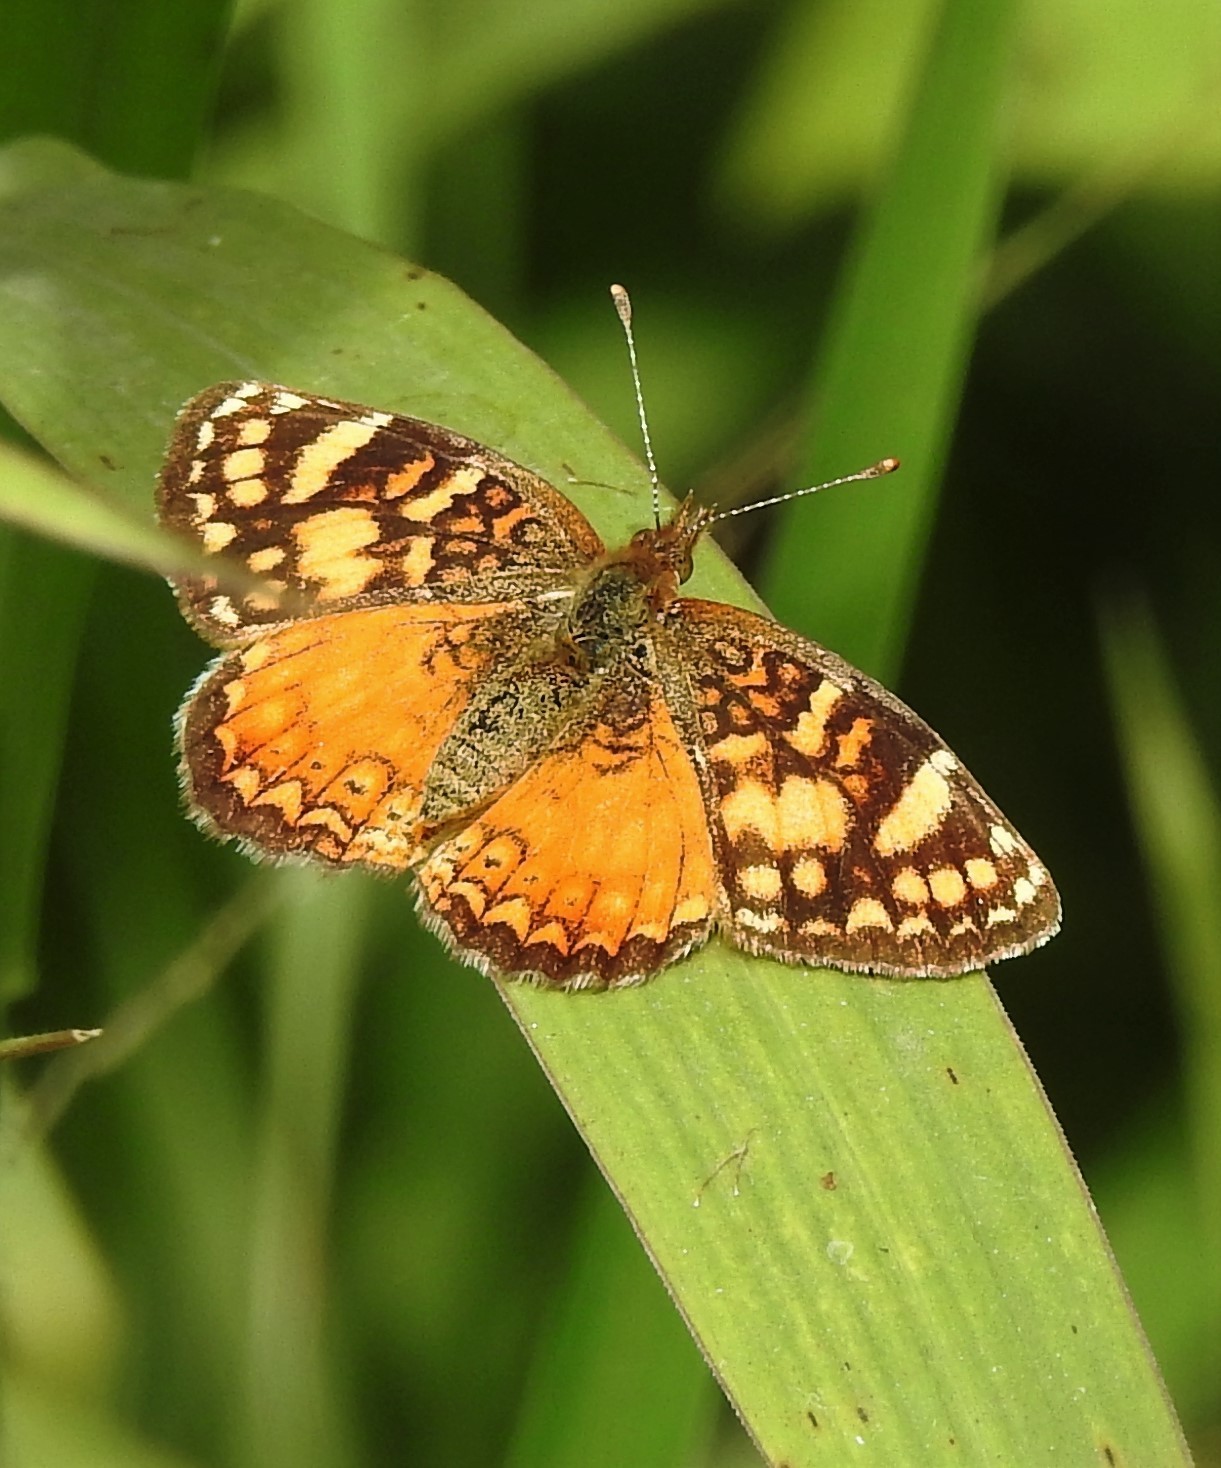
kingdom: Animalia
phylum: Arthropoda
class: Insecta
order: Lepidoptera
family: Nymphalidae
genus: Tegosa
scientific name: Tegosa orobia
